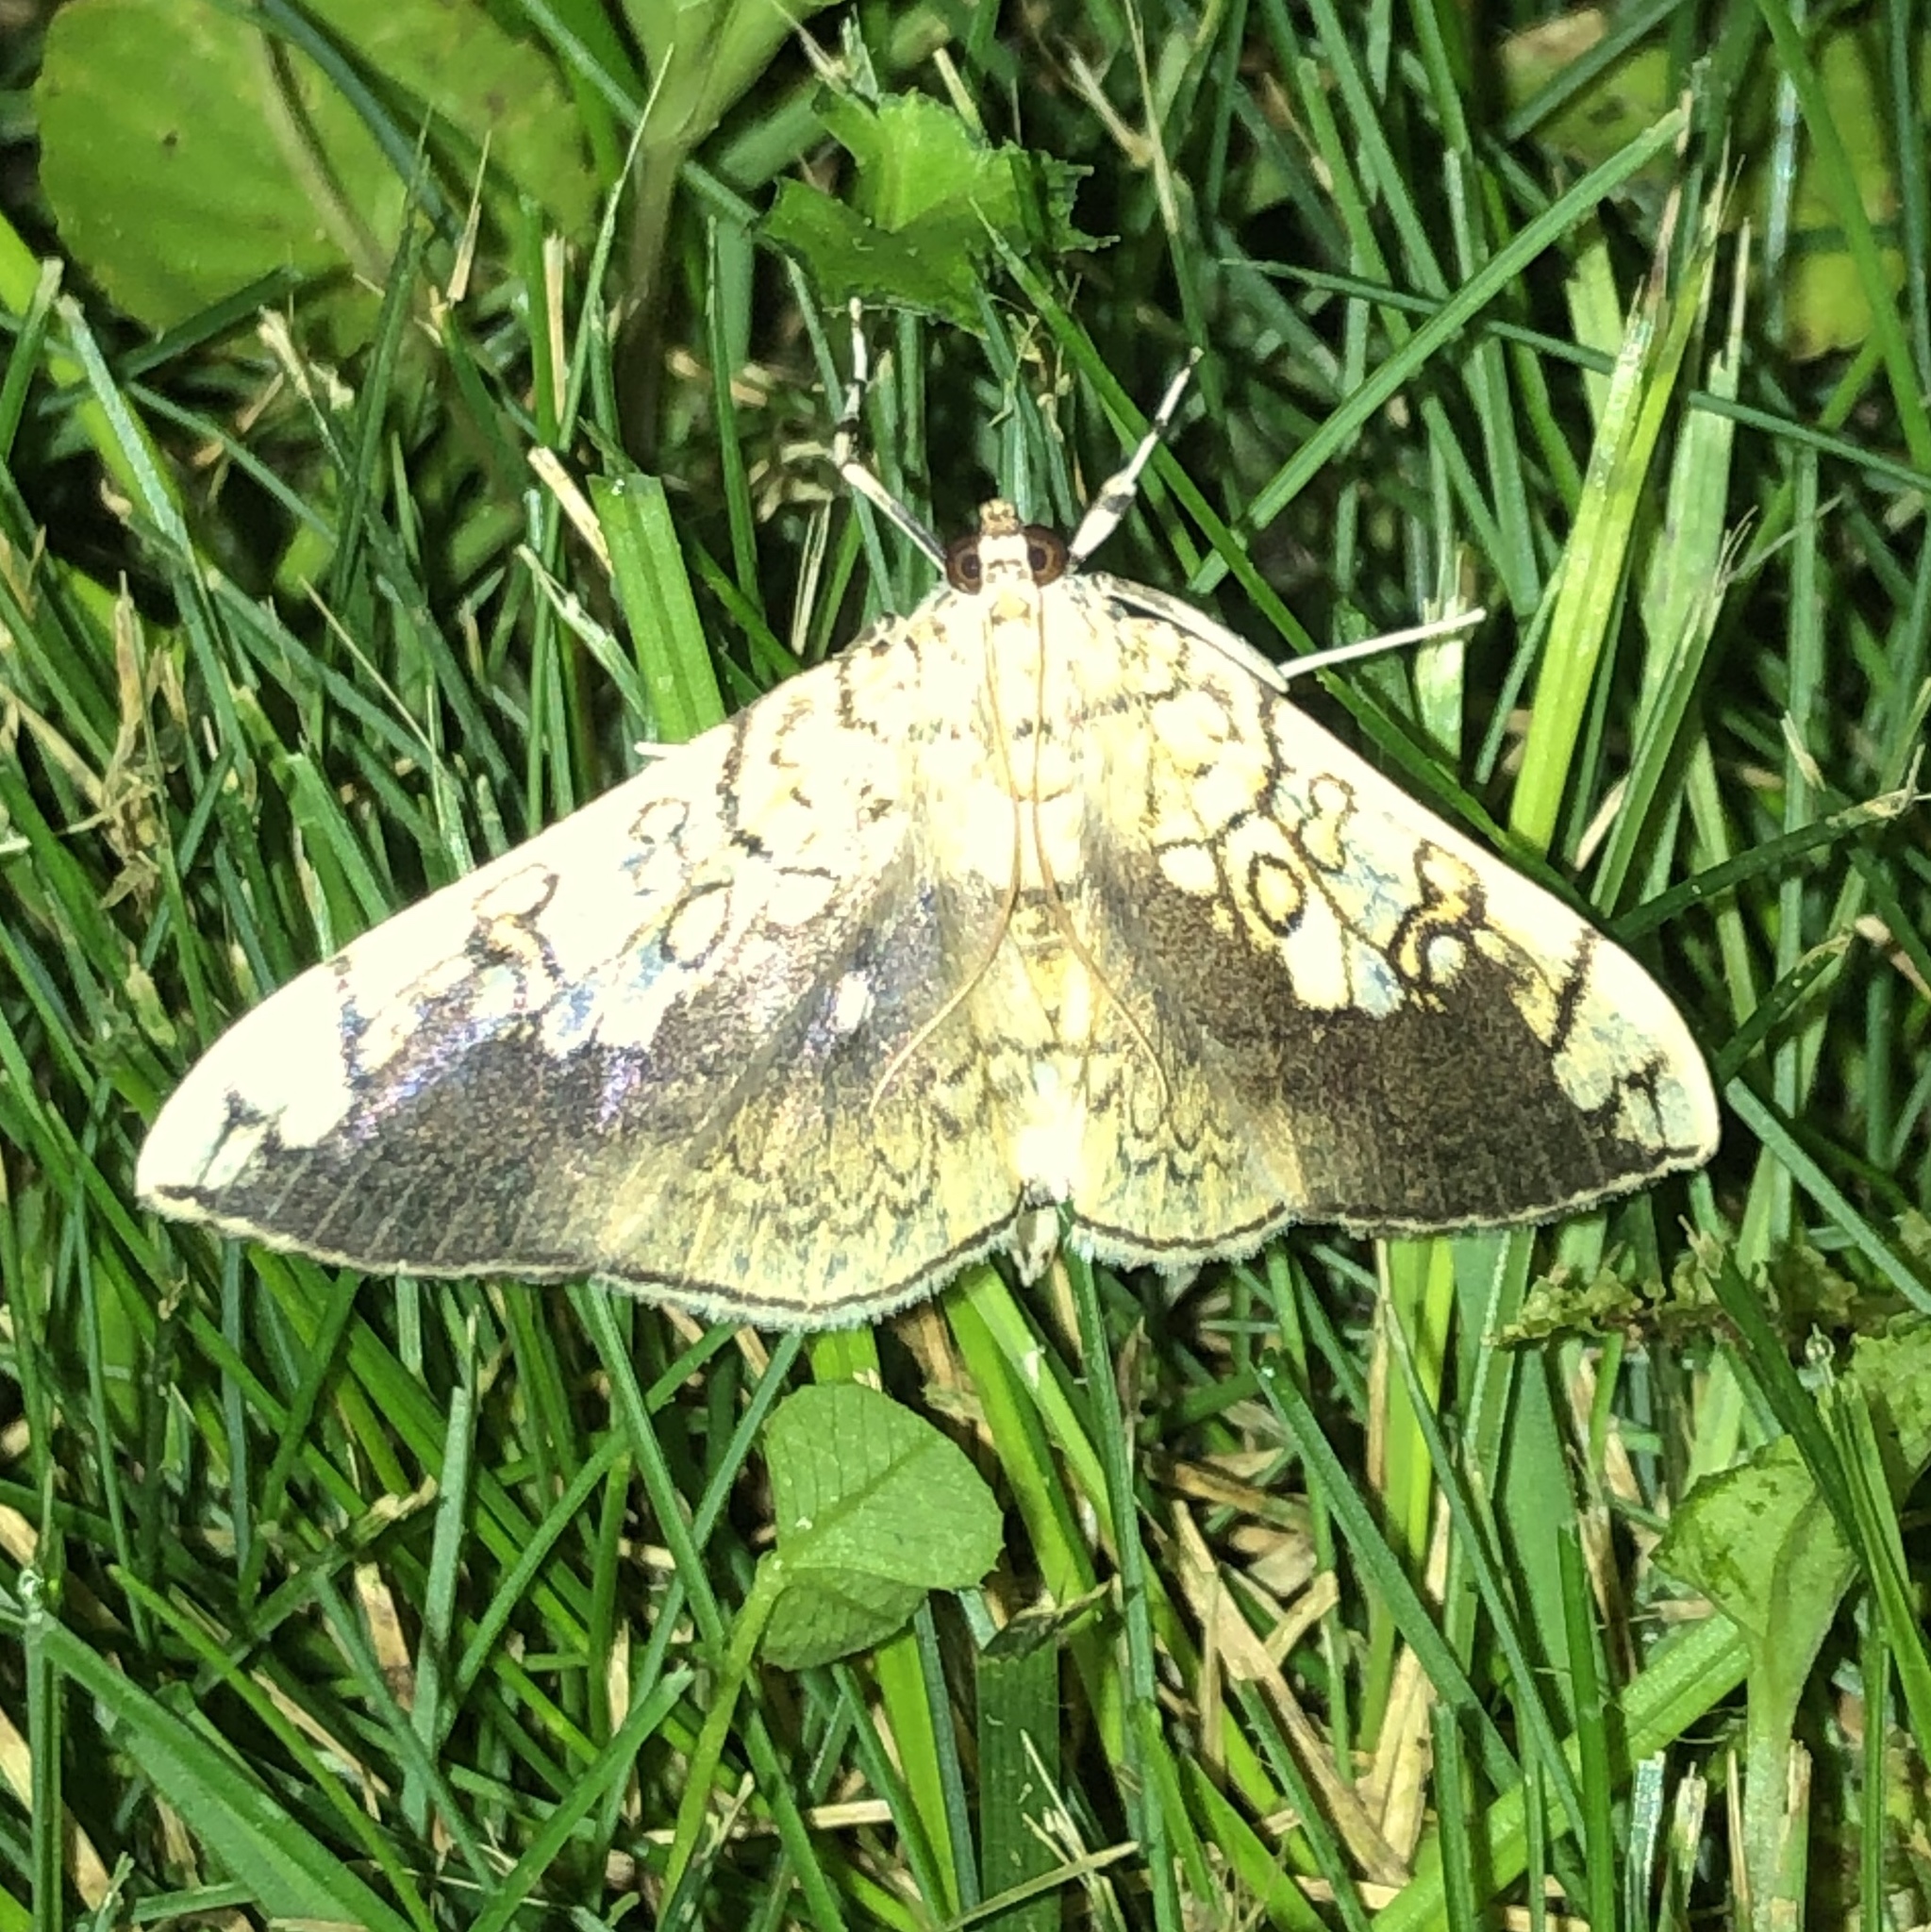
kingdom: Animalia
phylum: Arthropoda
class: Insecta
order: Lepidoptera
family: Crambidae
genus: Pantographa
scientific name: Pantographa limata
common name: Basswood leafroller moth
